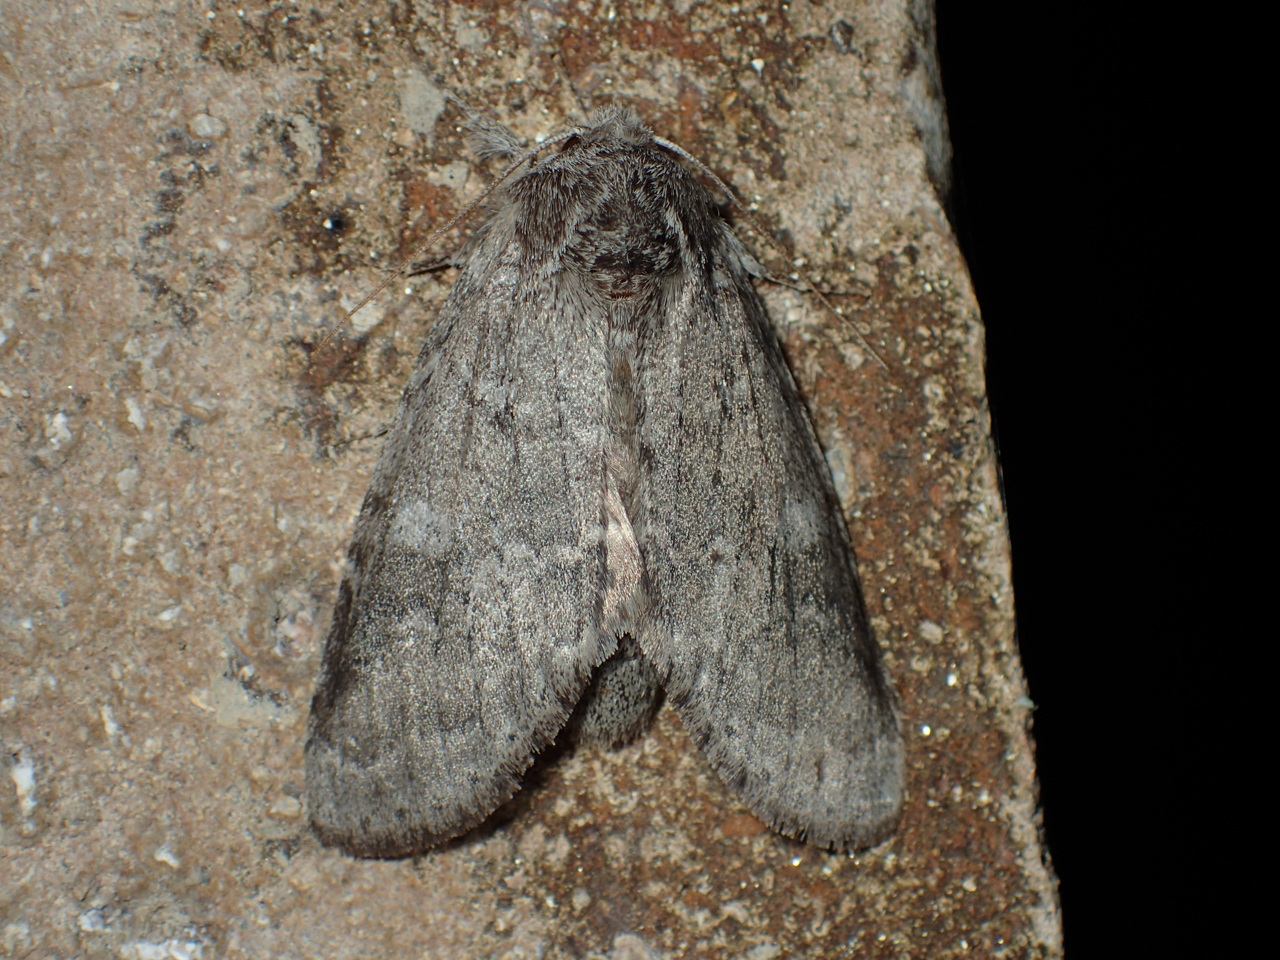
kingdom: Animalia
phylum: Arthropoda
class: Insecta
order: Lepidoptera
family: Notodontidae
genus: Lochmaeus
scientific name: Lochmaeus manteo
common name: Variable oakleaf caterpillar moth
